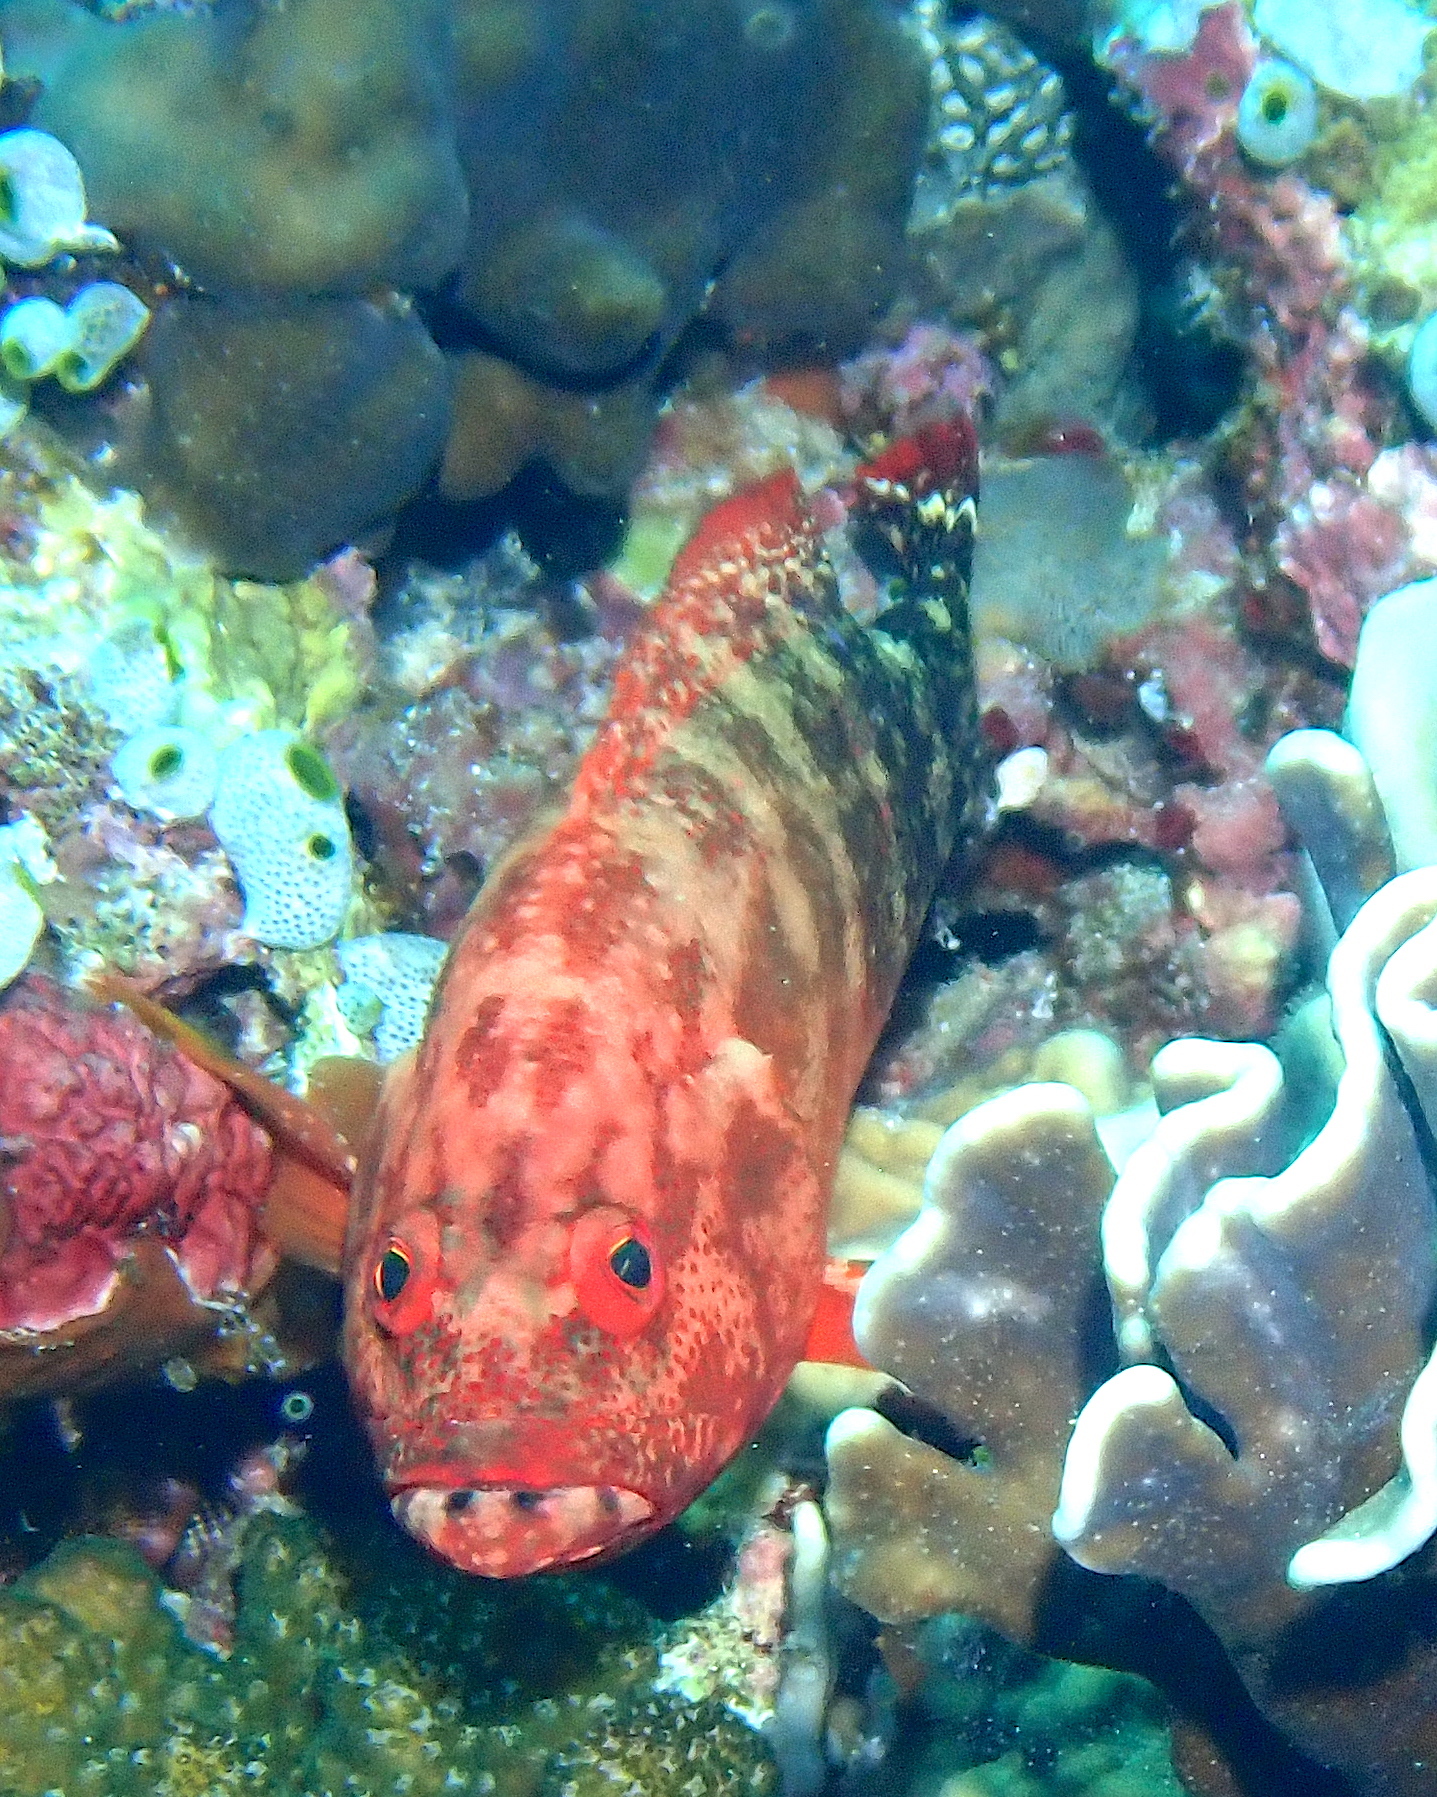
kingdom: Animalia
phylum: Chordata
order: Perciformes
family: Serranidae
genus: Cephalopholis
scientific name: Cephalopholis urodeta
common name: Darkfin hind
